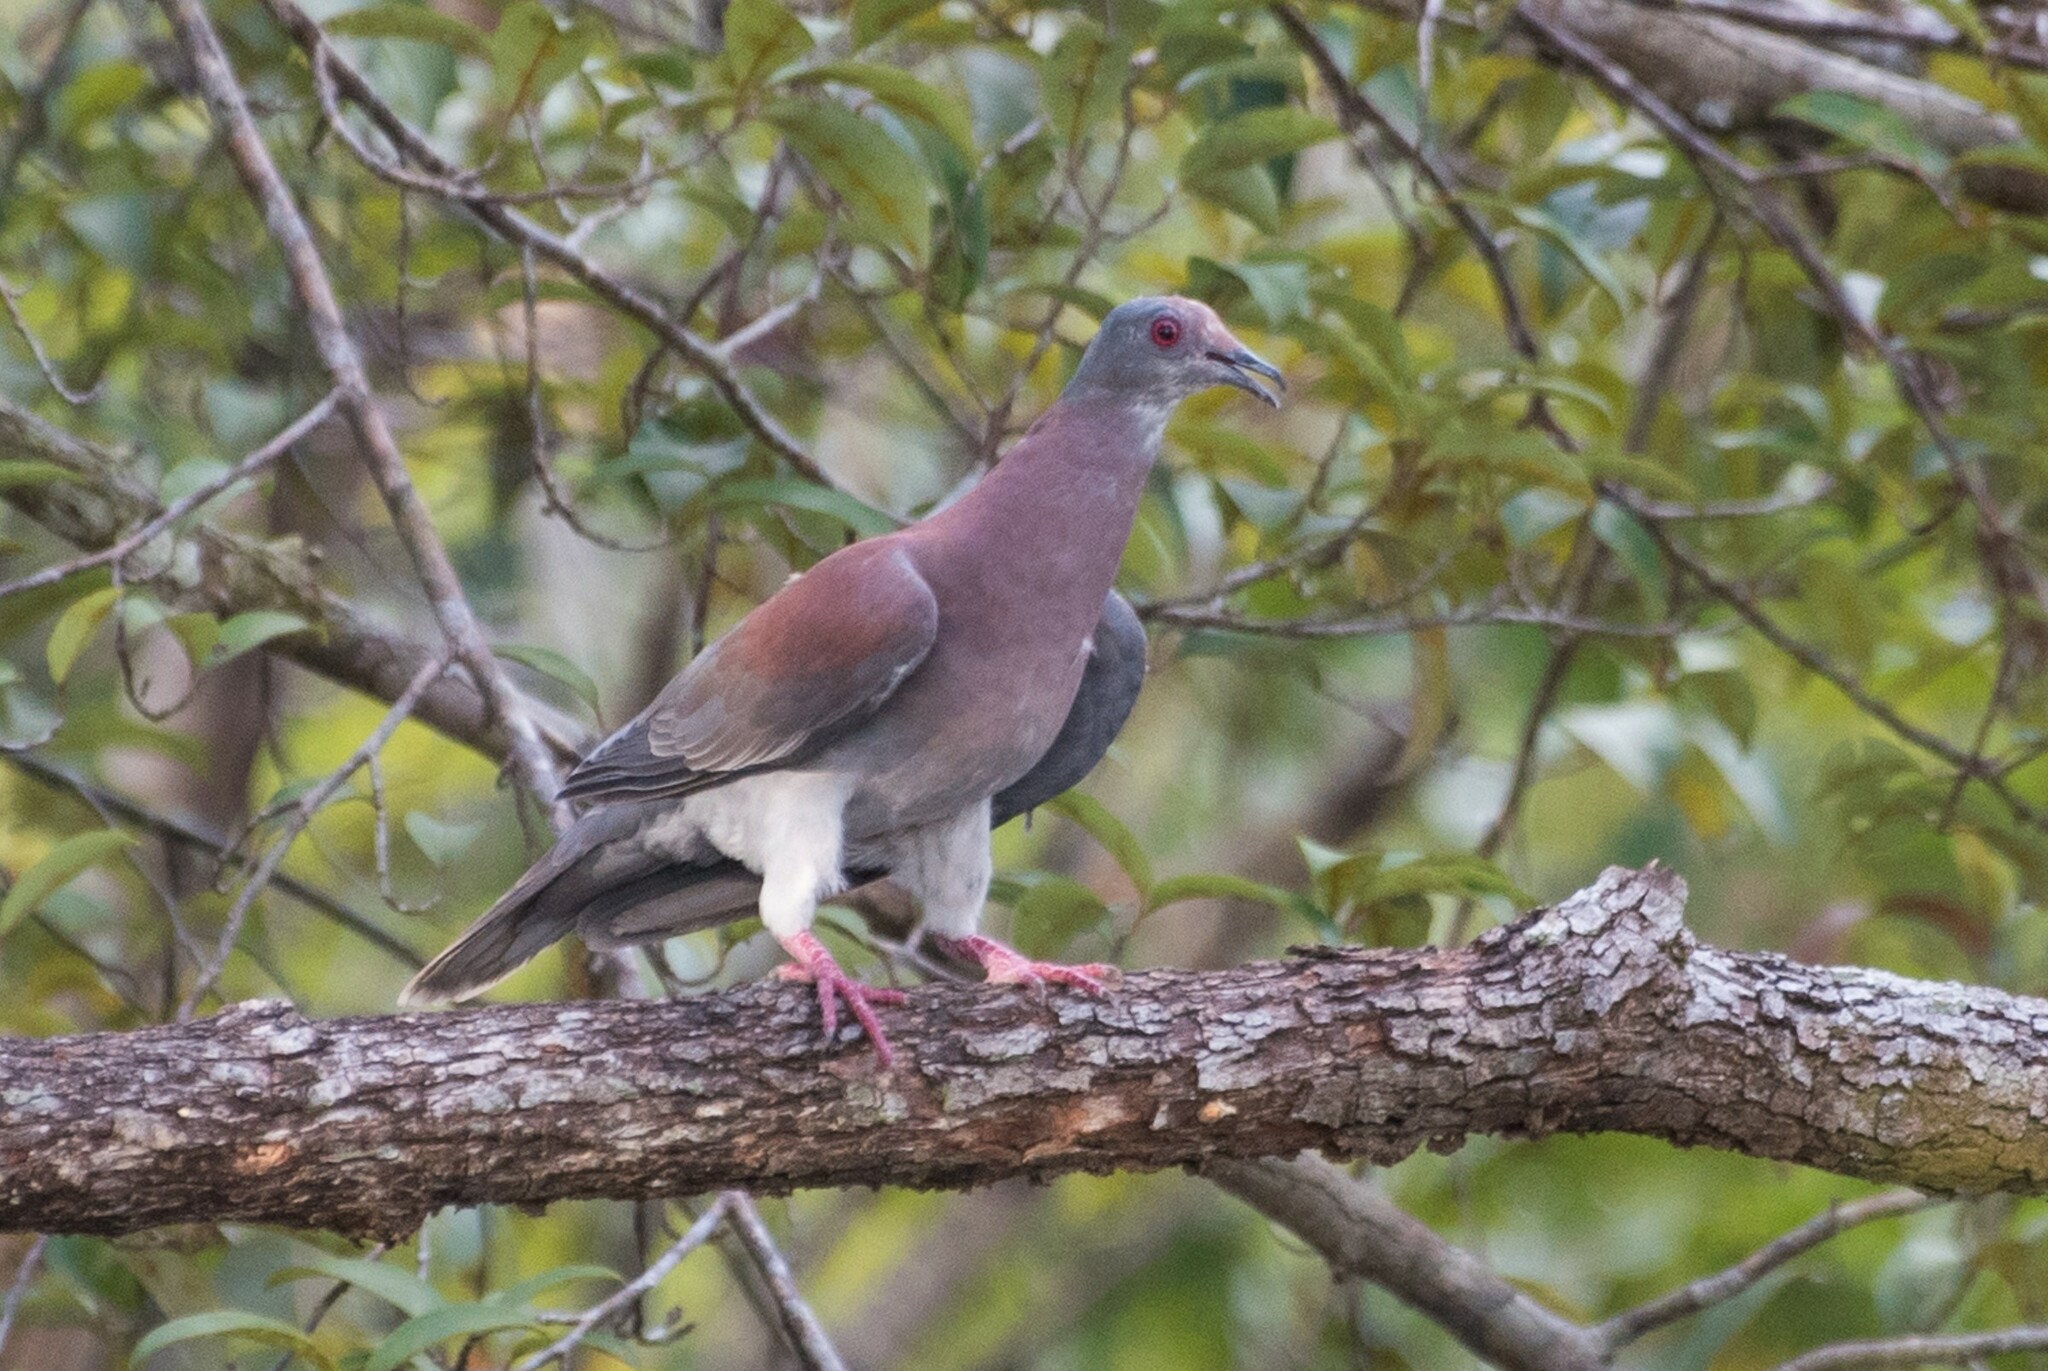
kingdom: Animalia
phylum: Chordata
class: Aves
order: Columbiformes
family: Columbidae
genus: Patagioenas
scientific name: Patagioenas cayennensis
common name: Pale-vented pigeon
